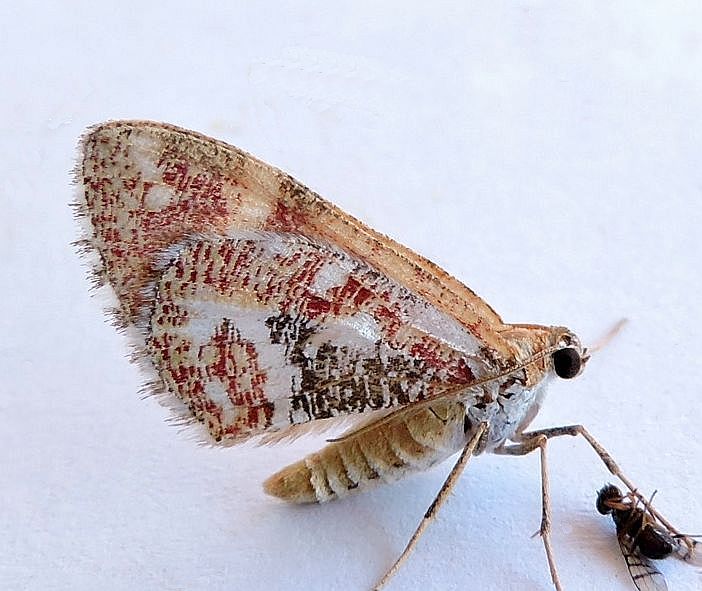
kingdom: Animalia
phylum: Arthropoda
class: Insecta
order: Lepidoptera
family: Geometridae
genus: Stamnodes
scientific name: Stamnodes formosata
